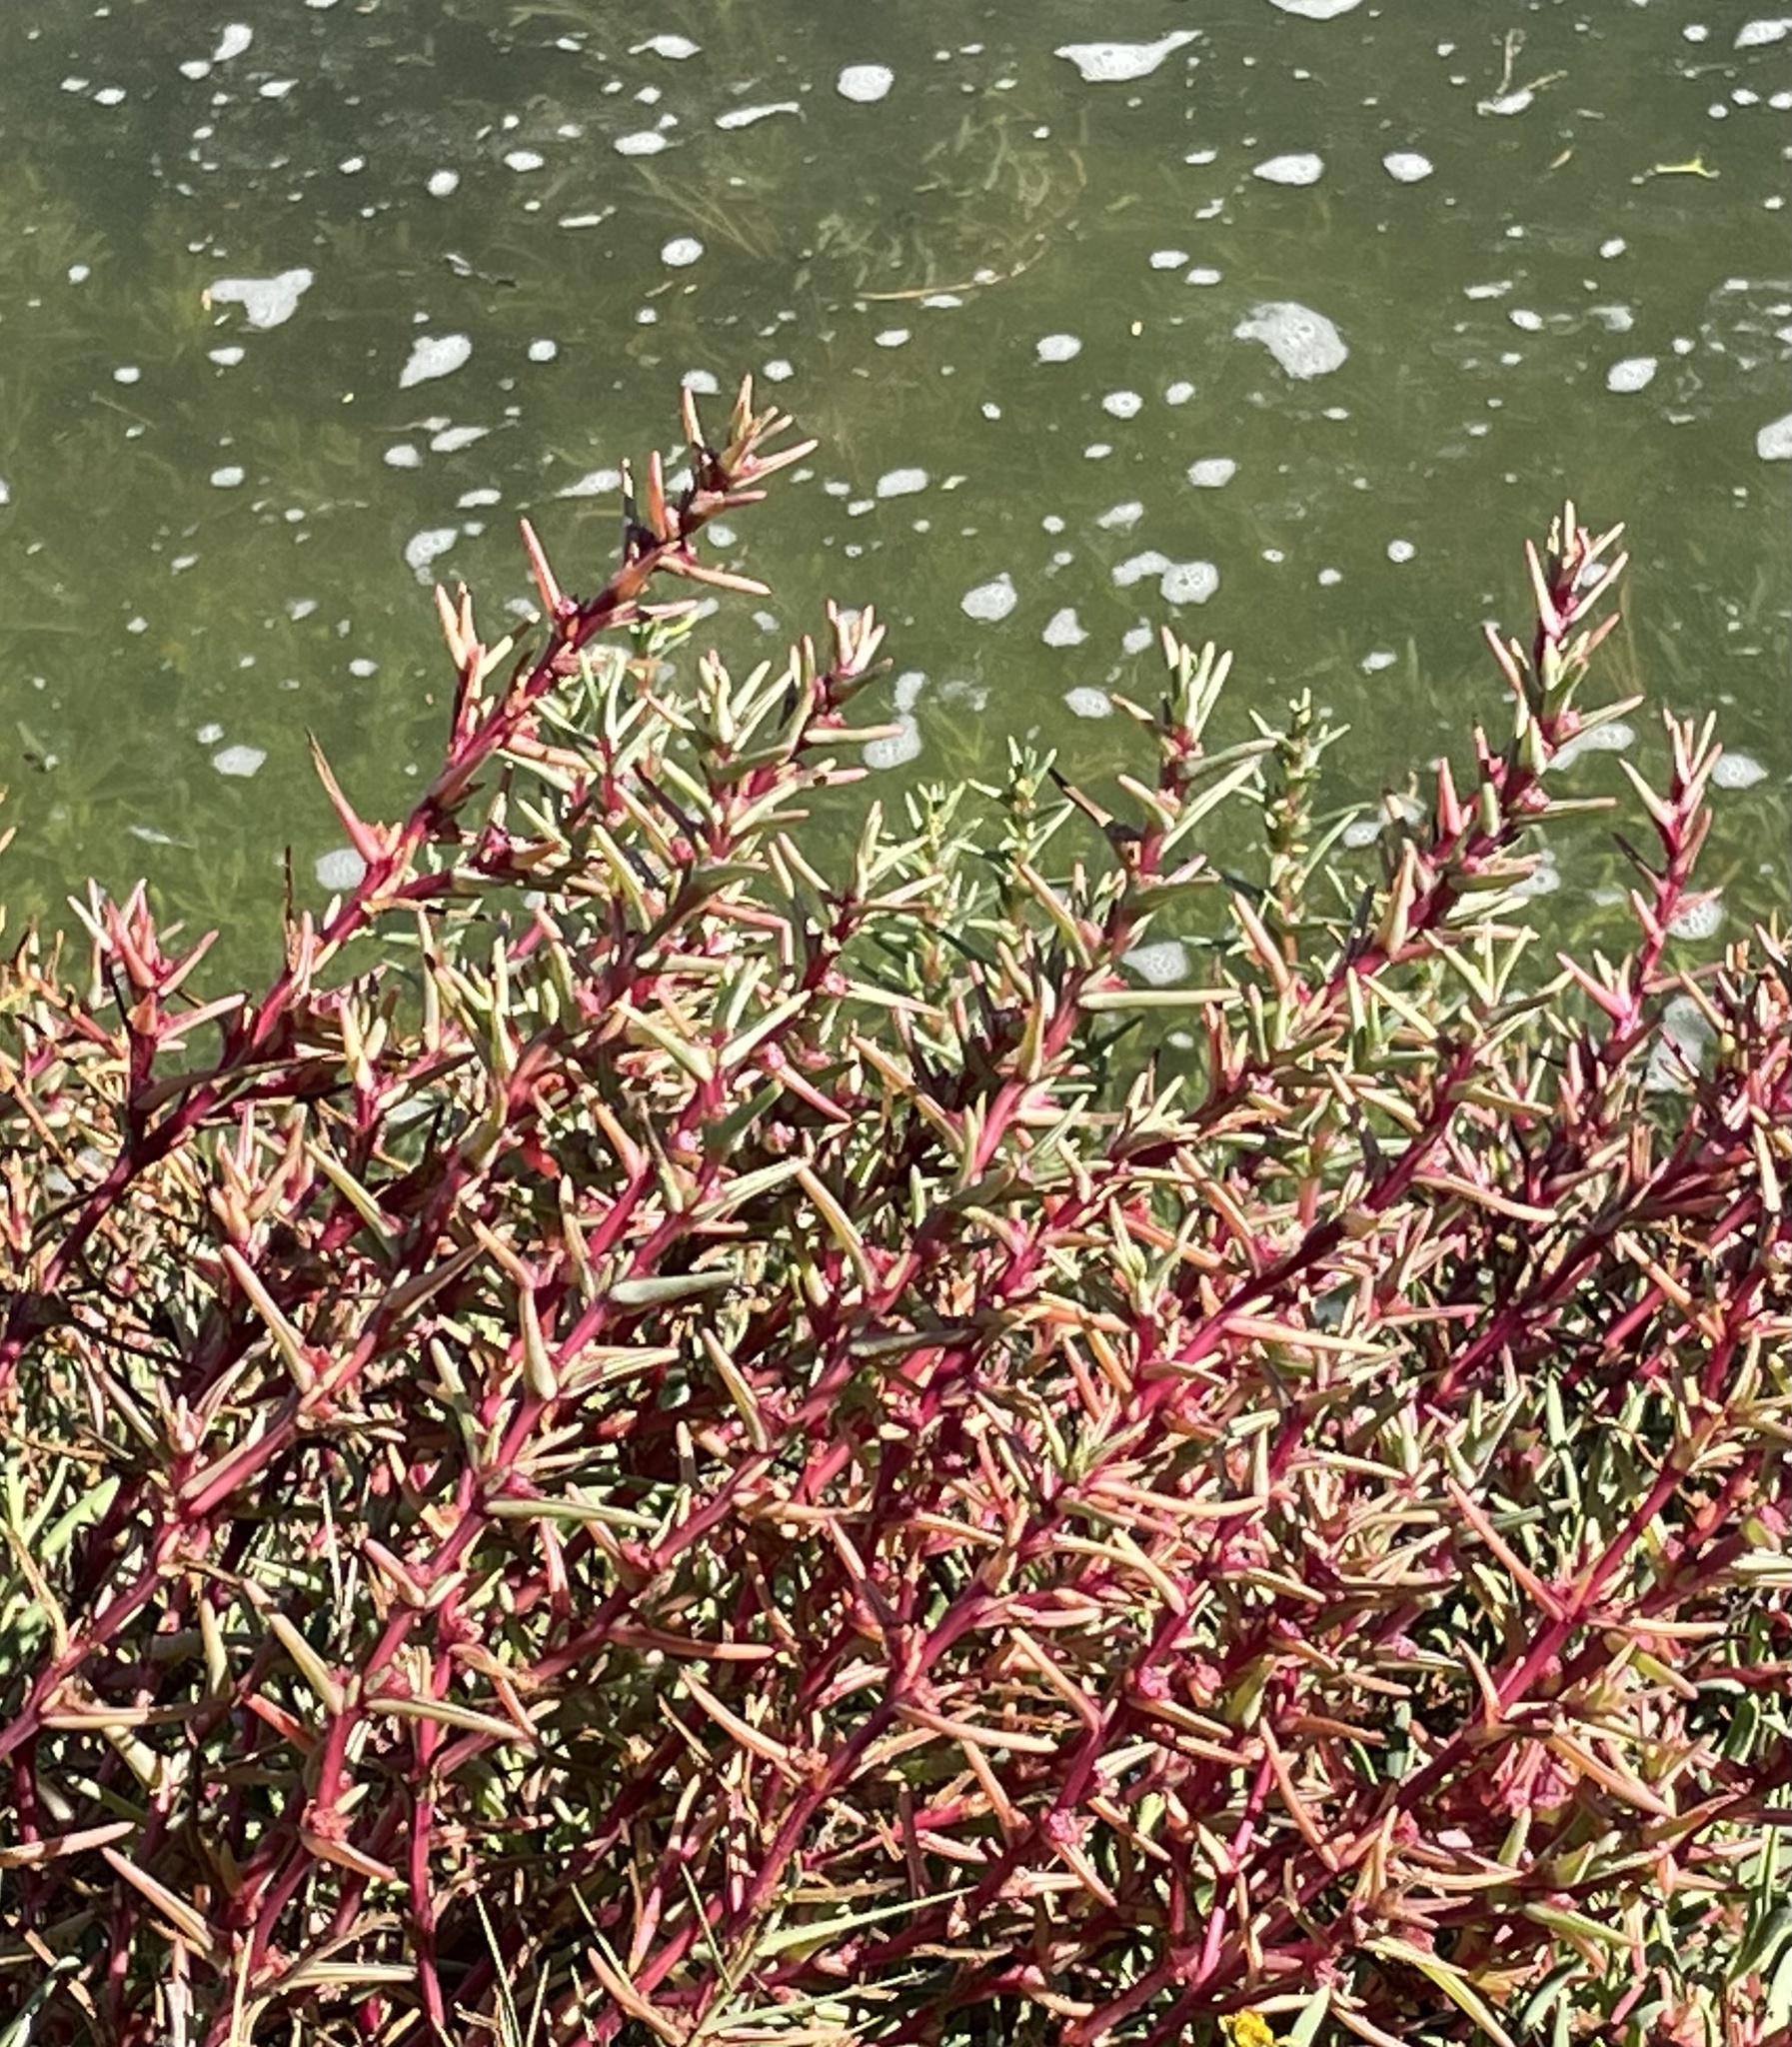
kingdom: Plantae
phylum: Tracheophyta
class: Magnoliopsida
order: Caryophyllales
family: Amaranthaceae
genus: Salsola
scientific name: Salsola soda
